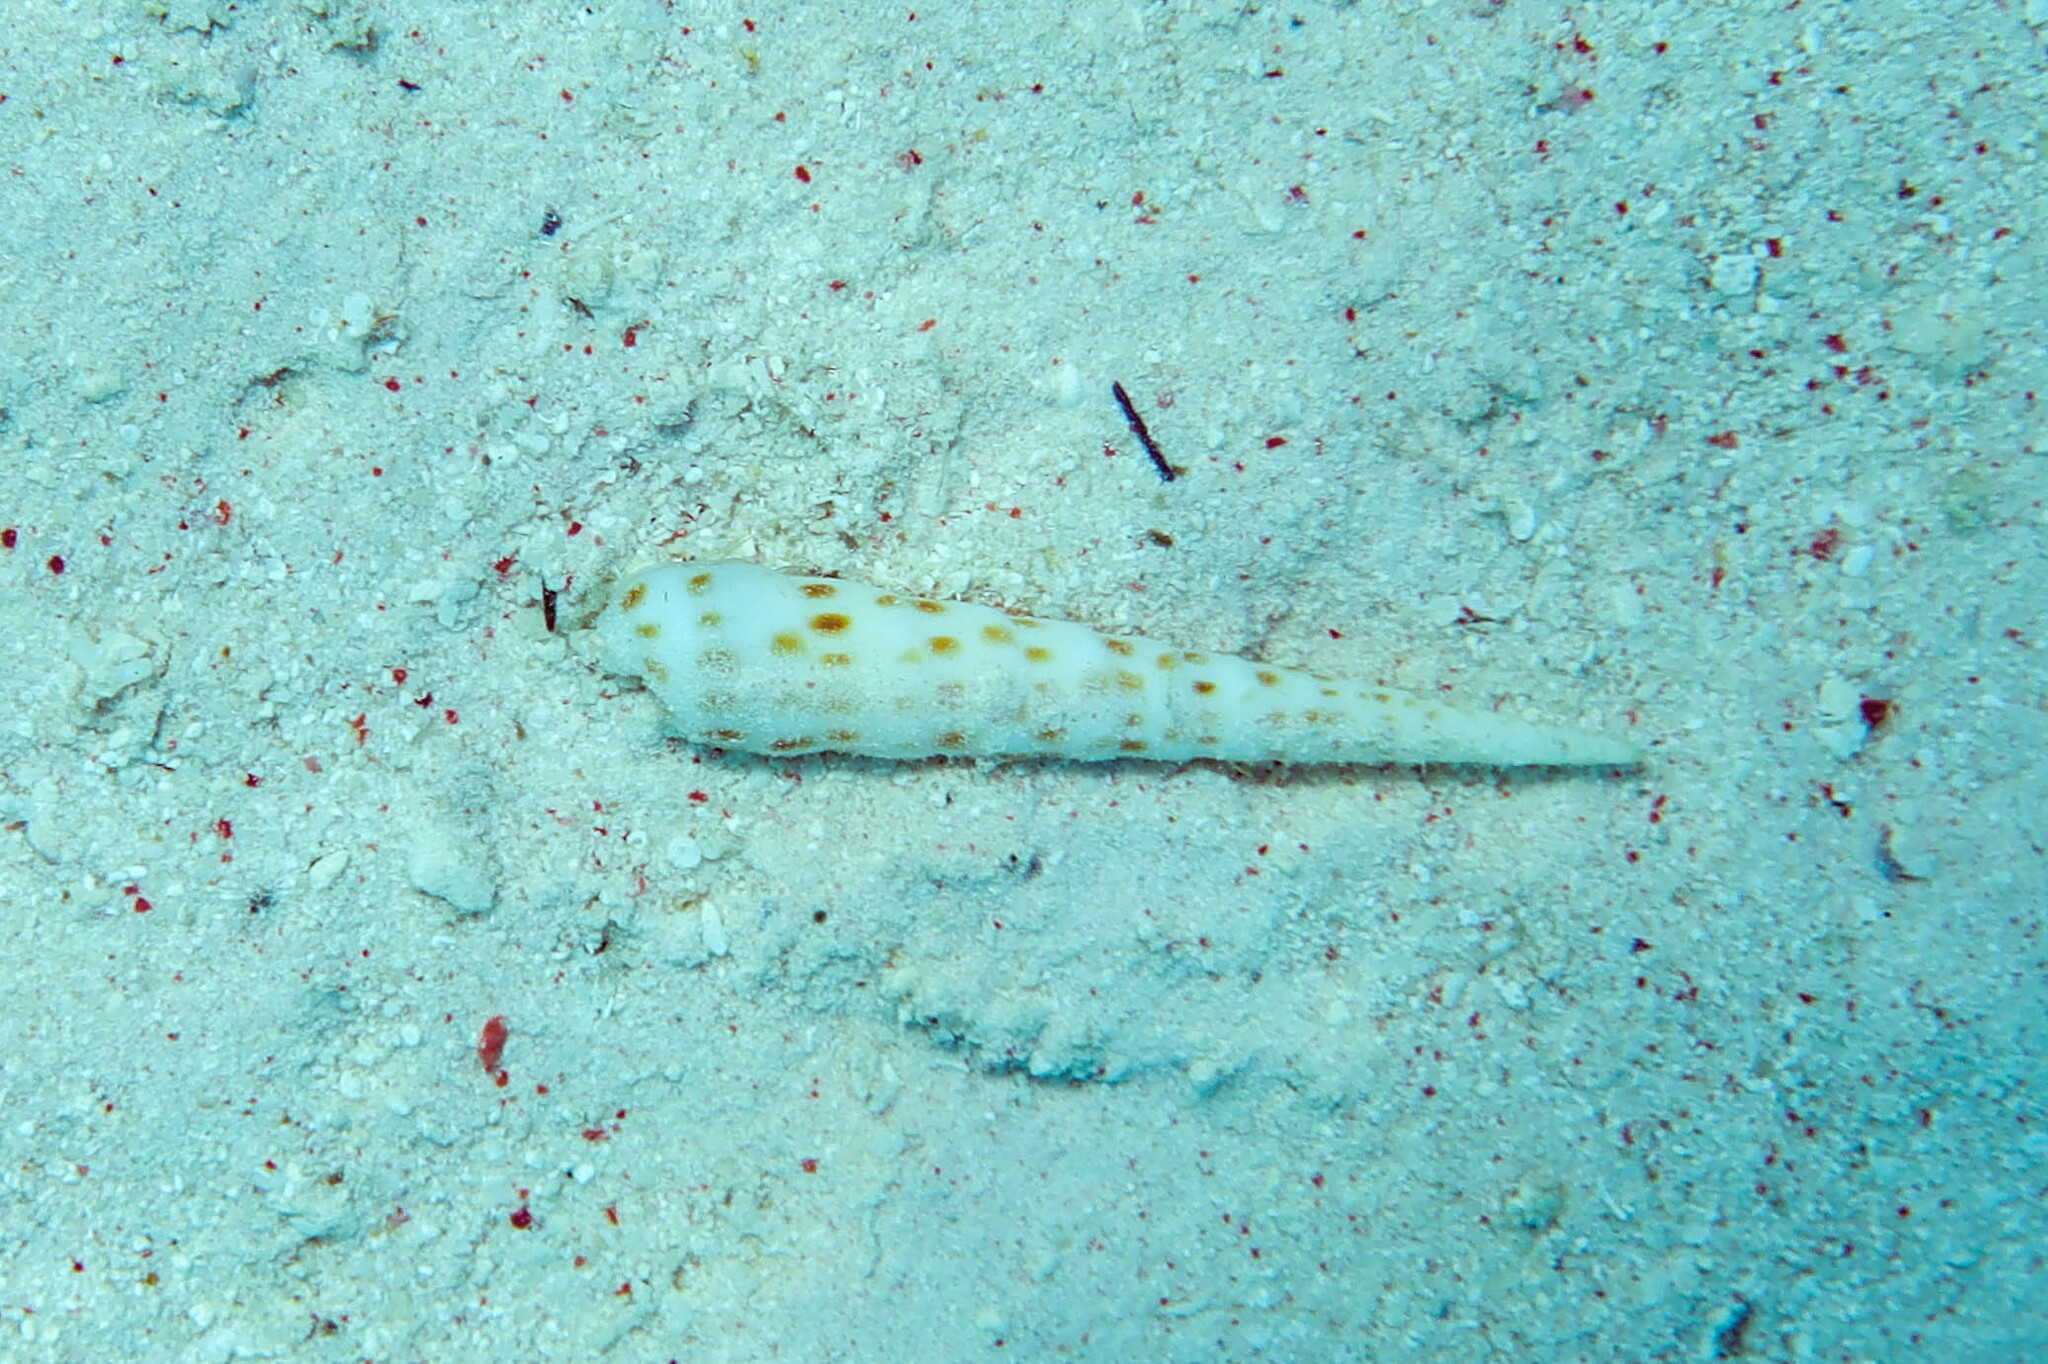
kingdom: Animalia
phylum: Mollusca
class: Gastropoda
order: Neogastropoda
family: Terebridae
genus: Terebra
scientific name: Terebra consobrina
